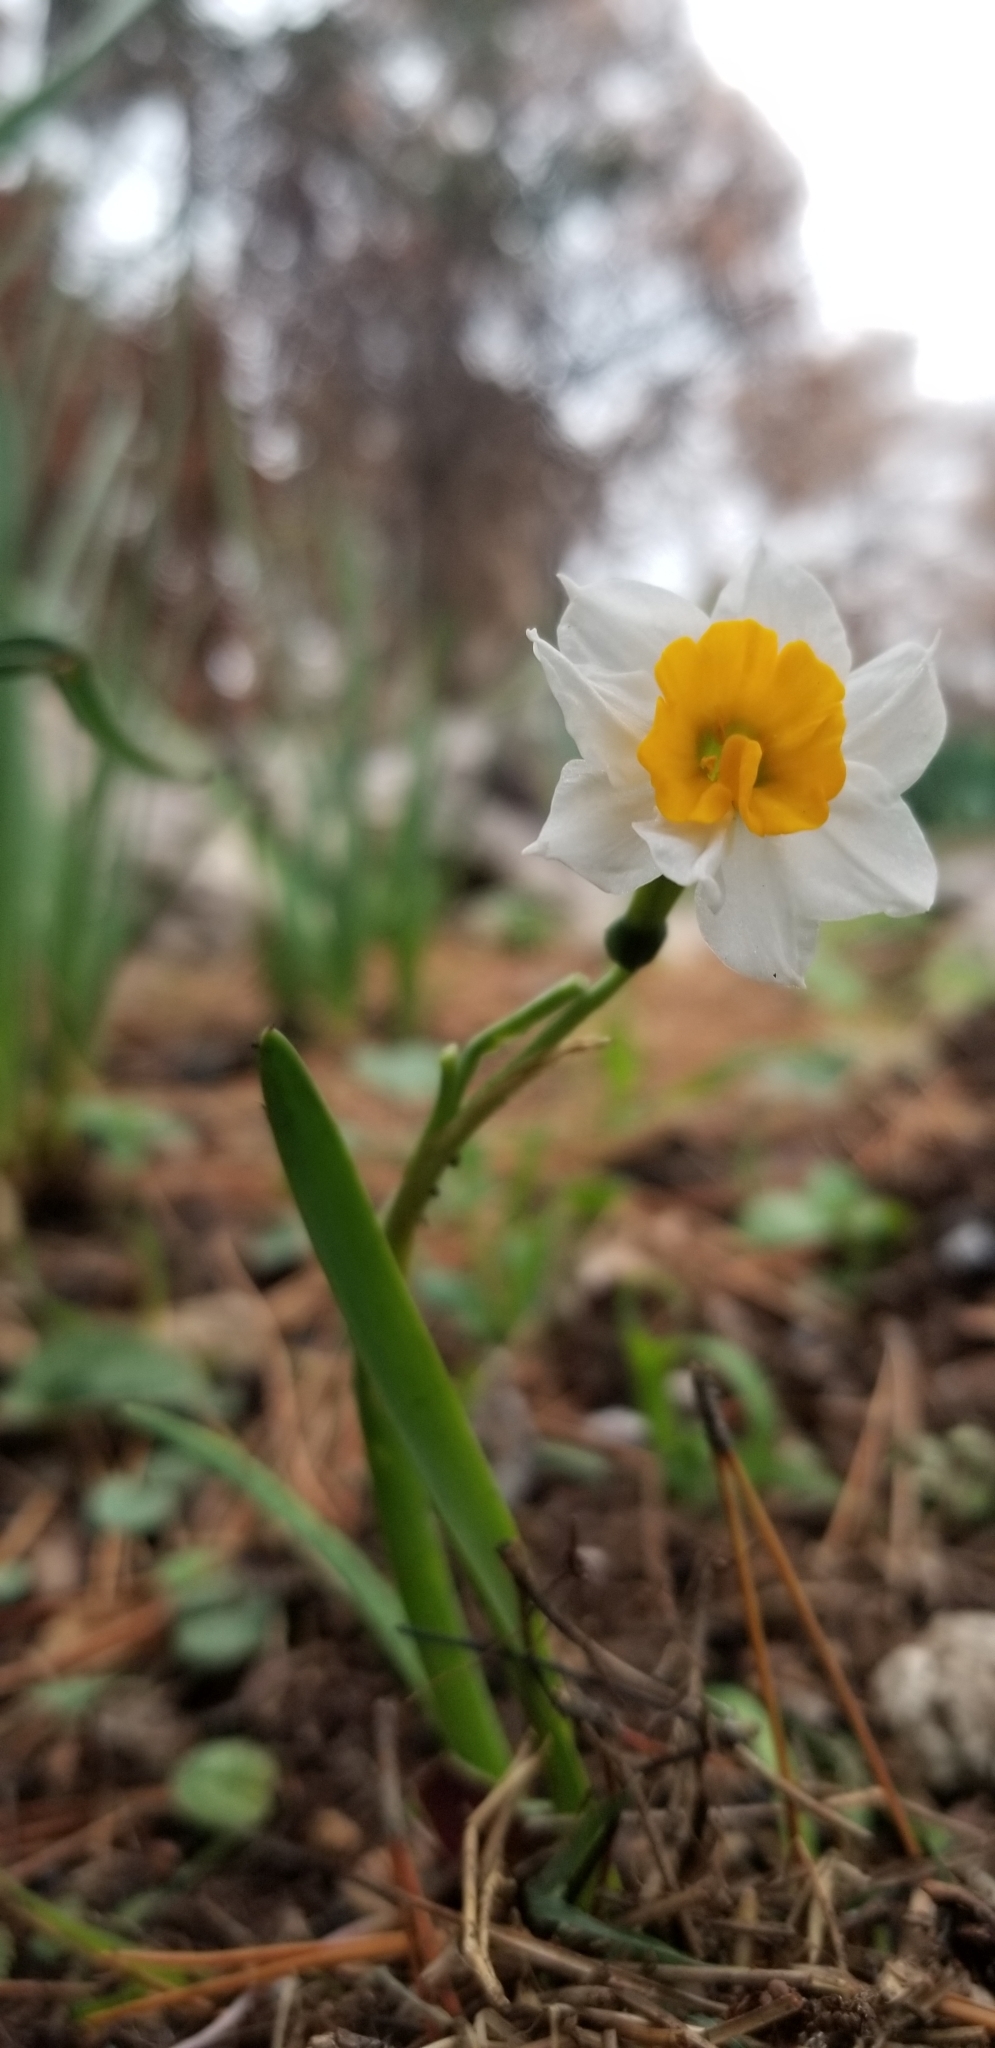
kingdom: Plantae
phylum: Tracheophyta
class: Liliopsida
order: Asparagales
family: Amaryllidaceae
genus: Narcissus
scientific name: Narcissus tazetta
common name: Bunch-flowered daffodil
